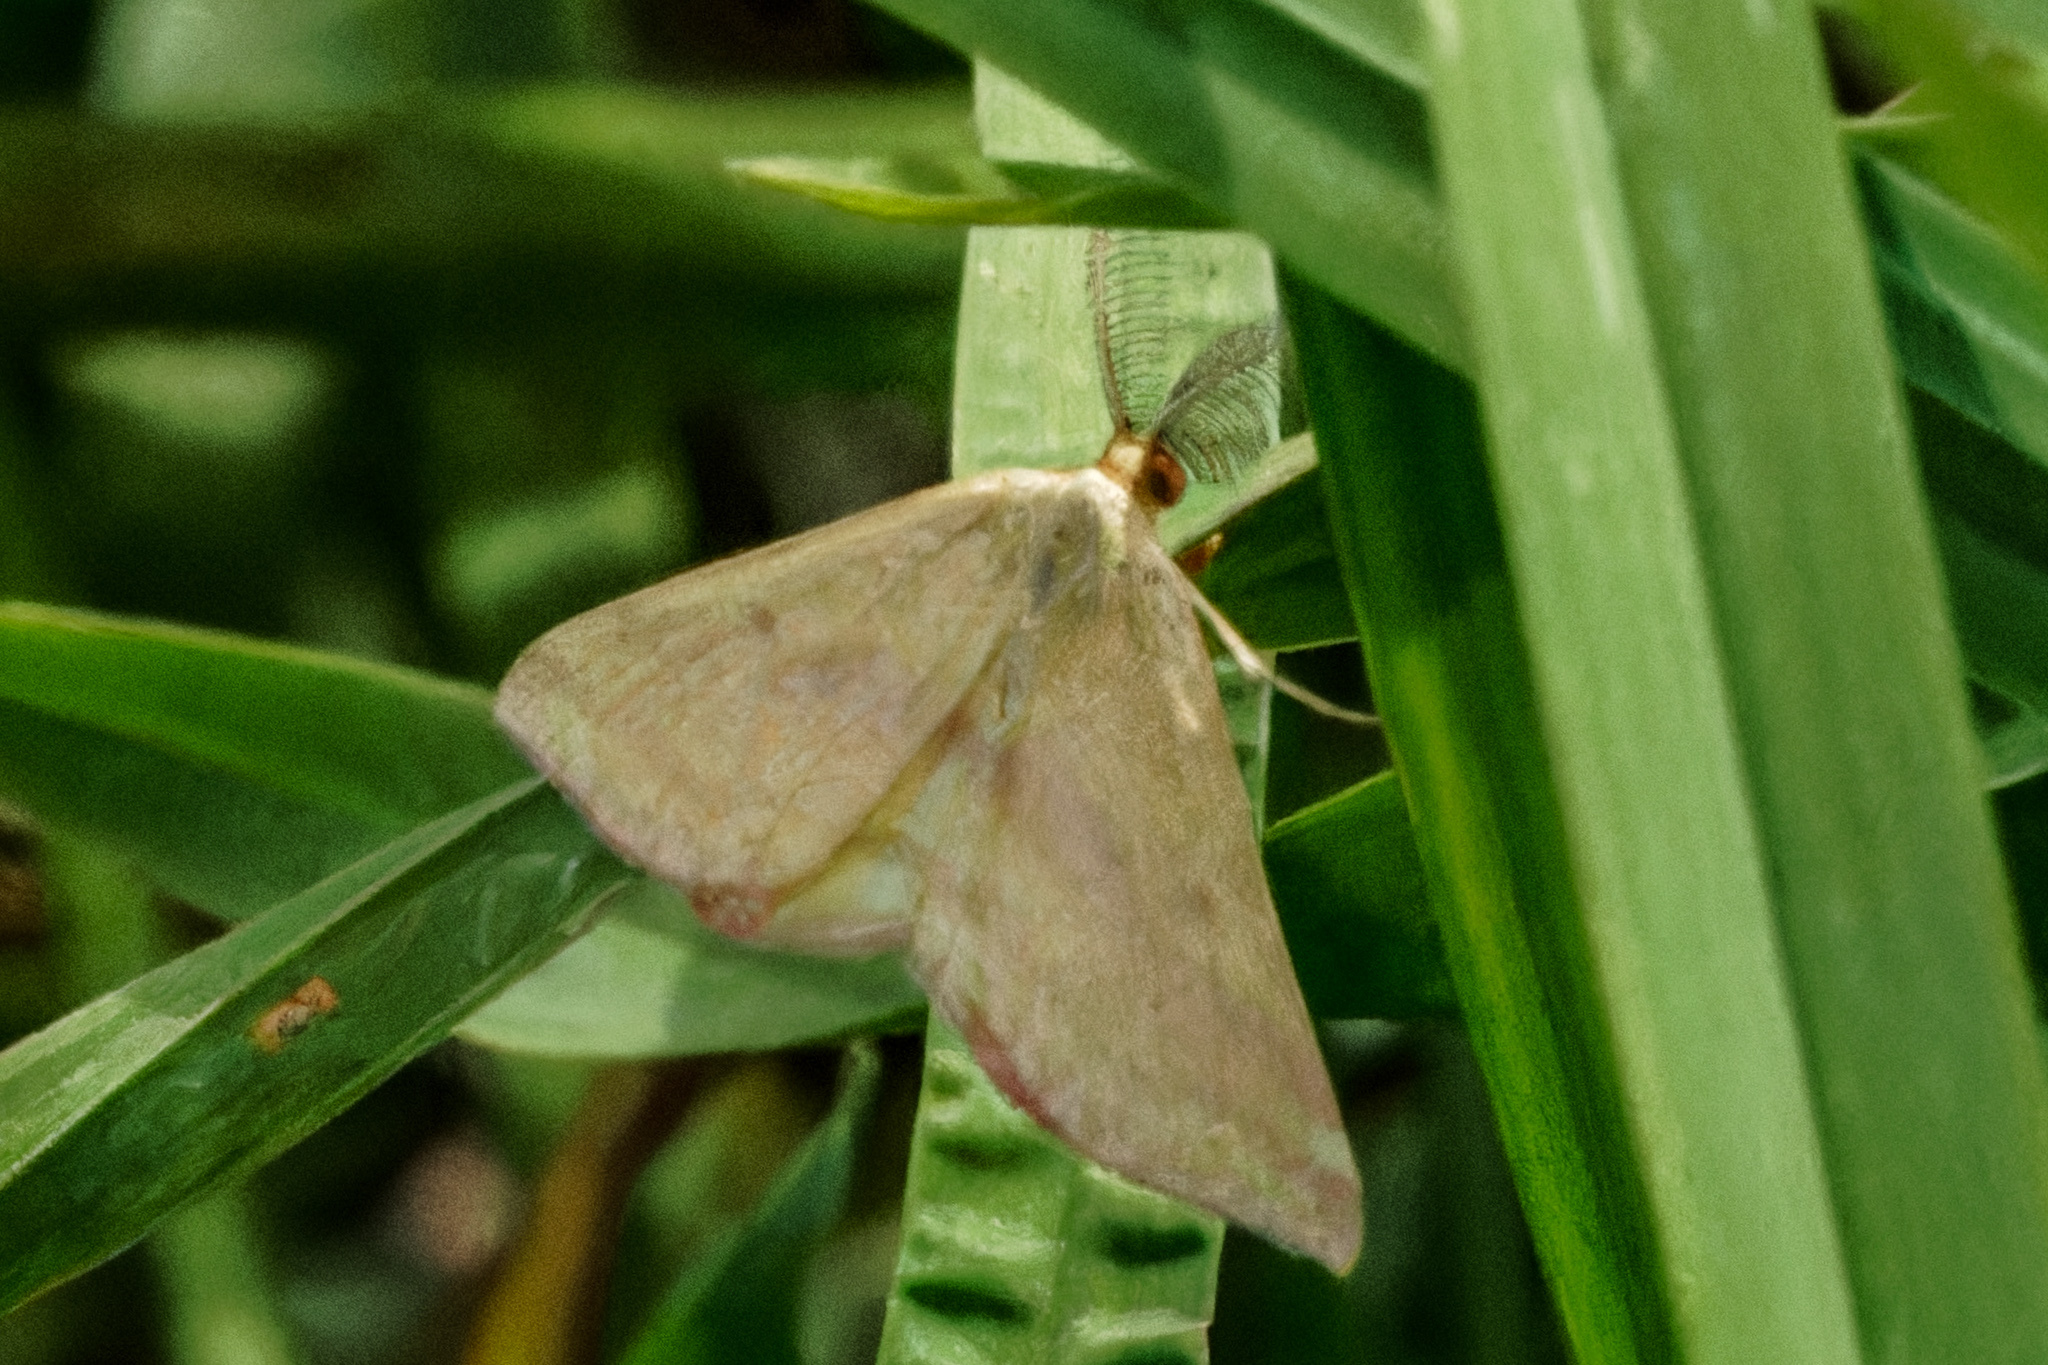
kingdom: Animalia
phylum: Arthropoda
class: Insecta
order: Lepidoptera
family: Geometridae
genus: Haematopis
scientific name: Haematopis grataria
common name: Chickweed geometer
